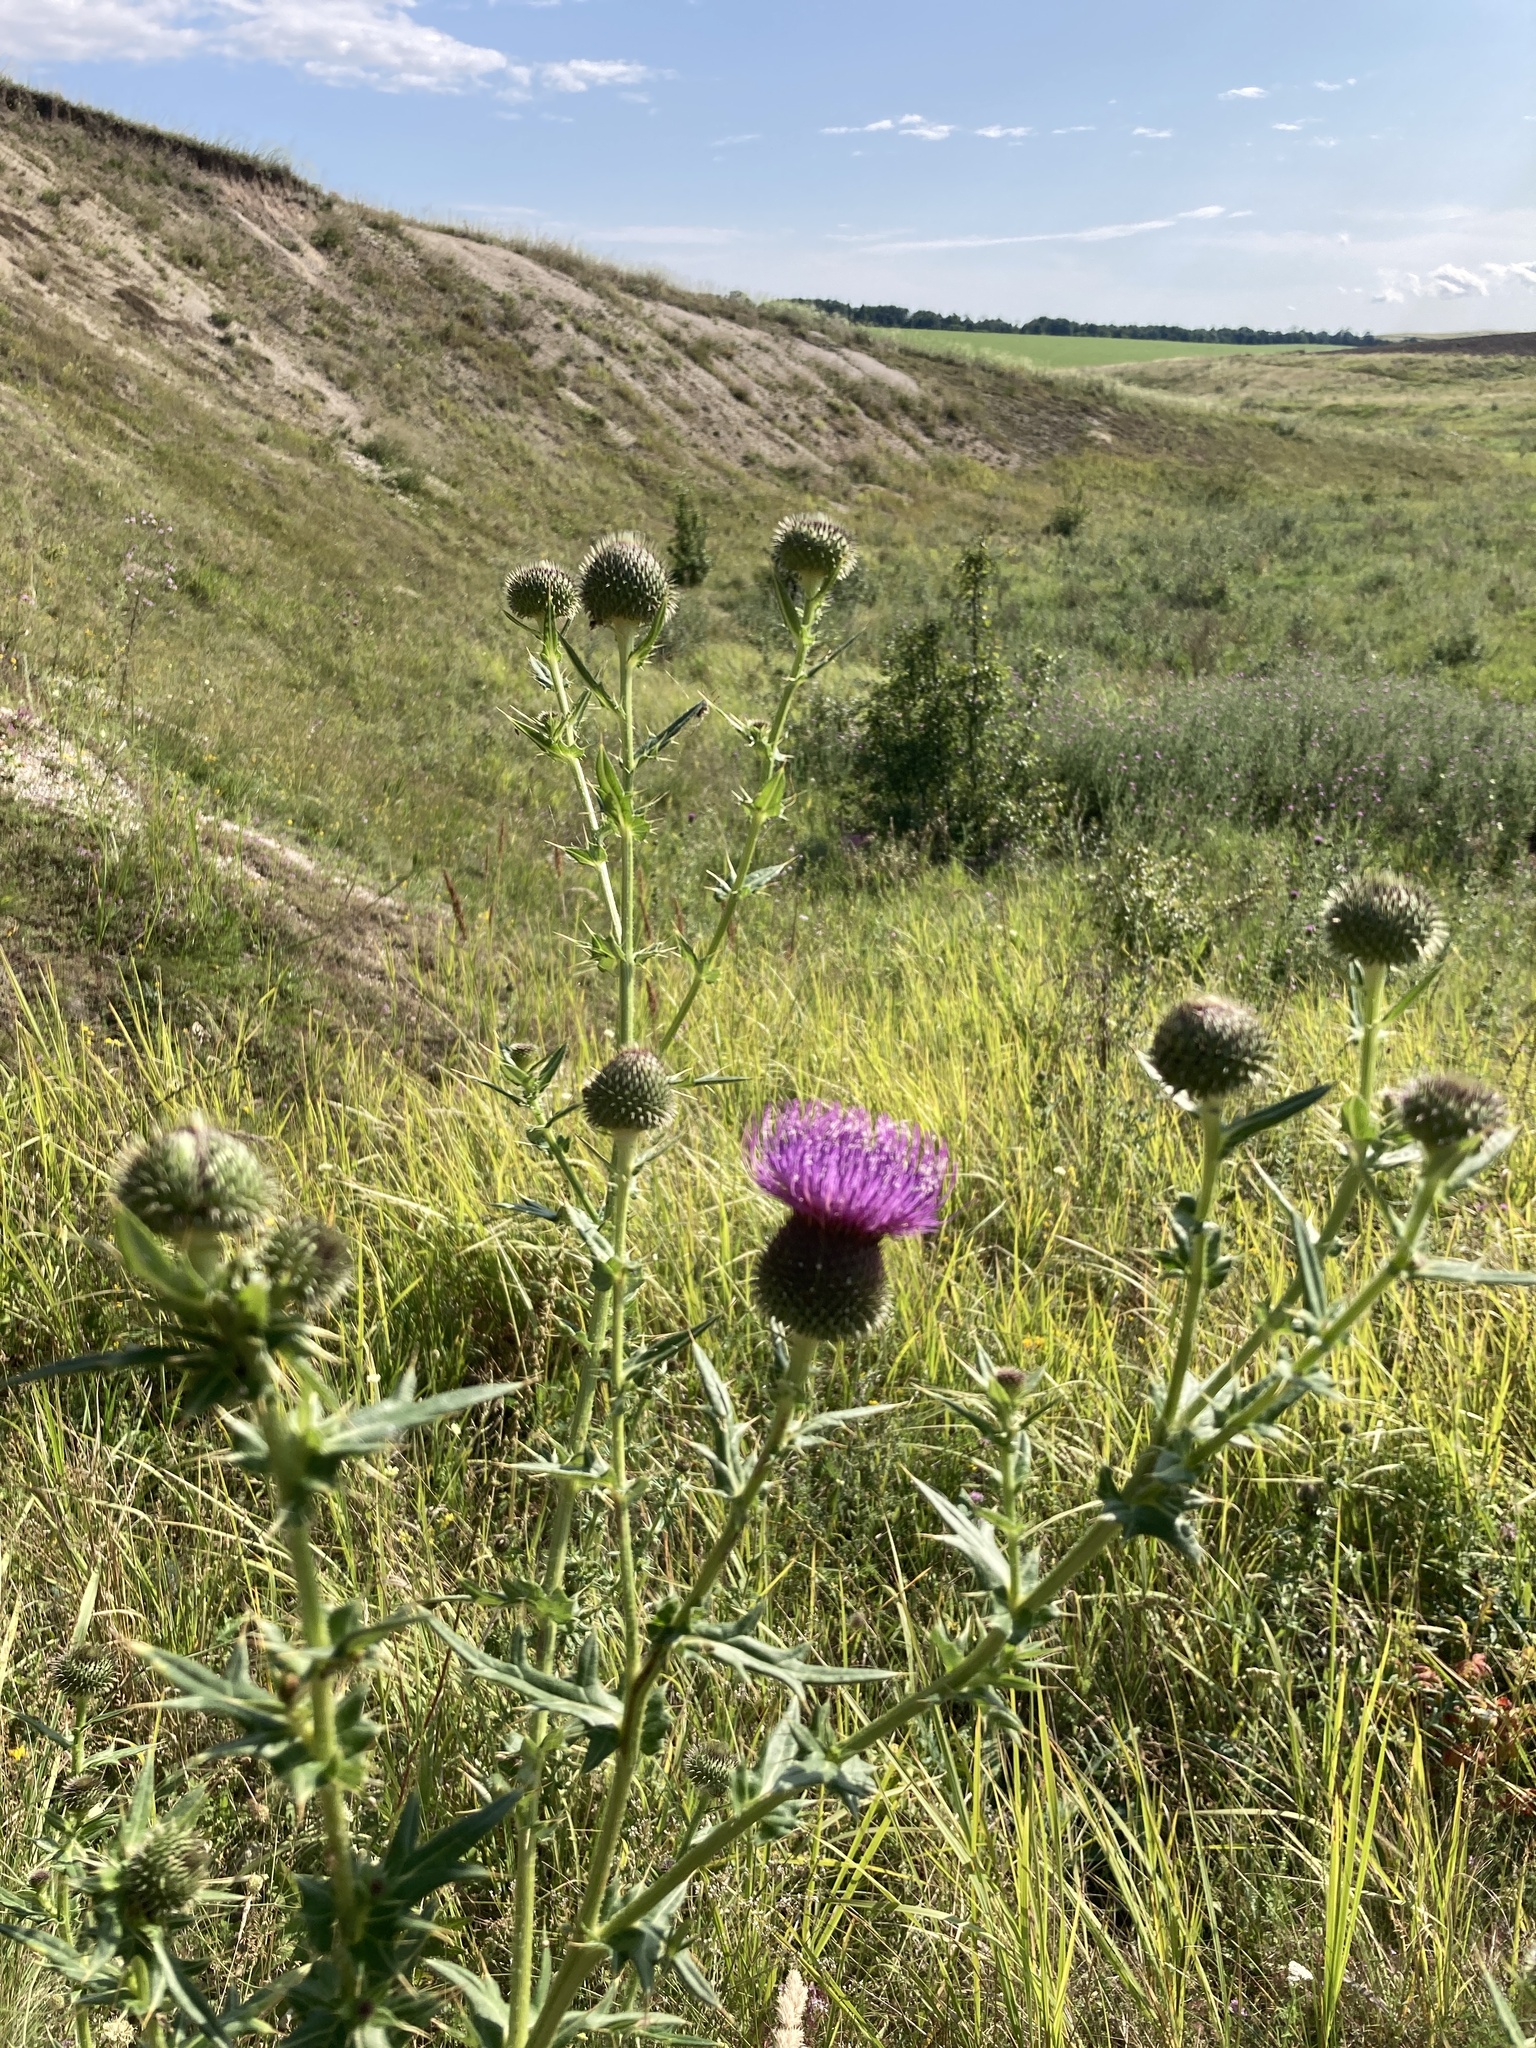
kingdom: Plantae
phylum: Tracheophyta
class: Magnoliopsida
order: Asterales
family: Asteraceae
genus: Cirsium
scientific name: Cirsium serrulatum
